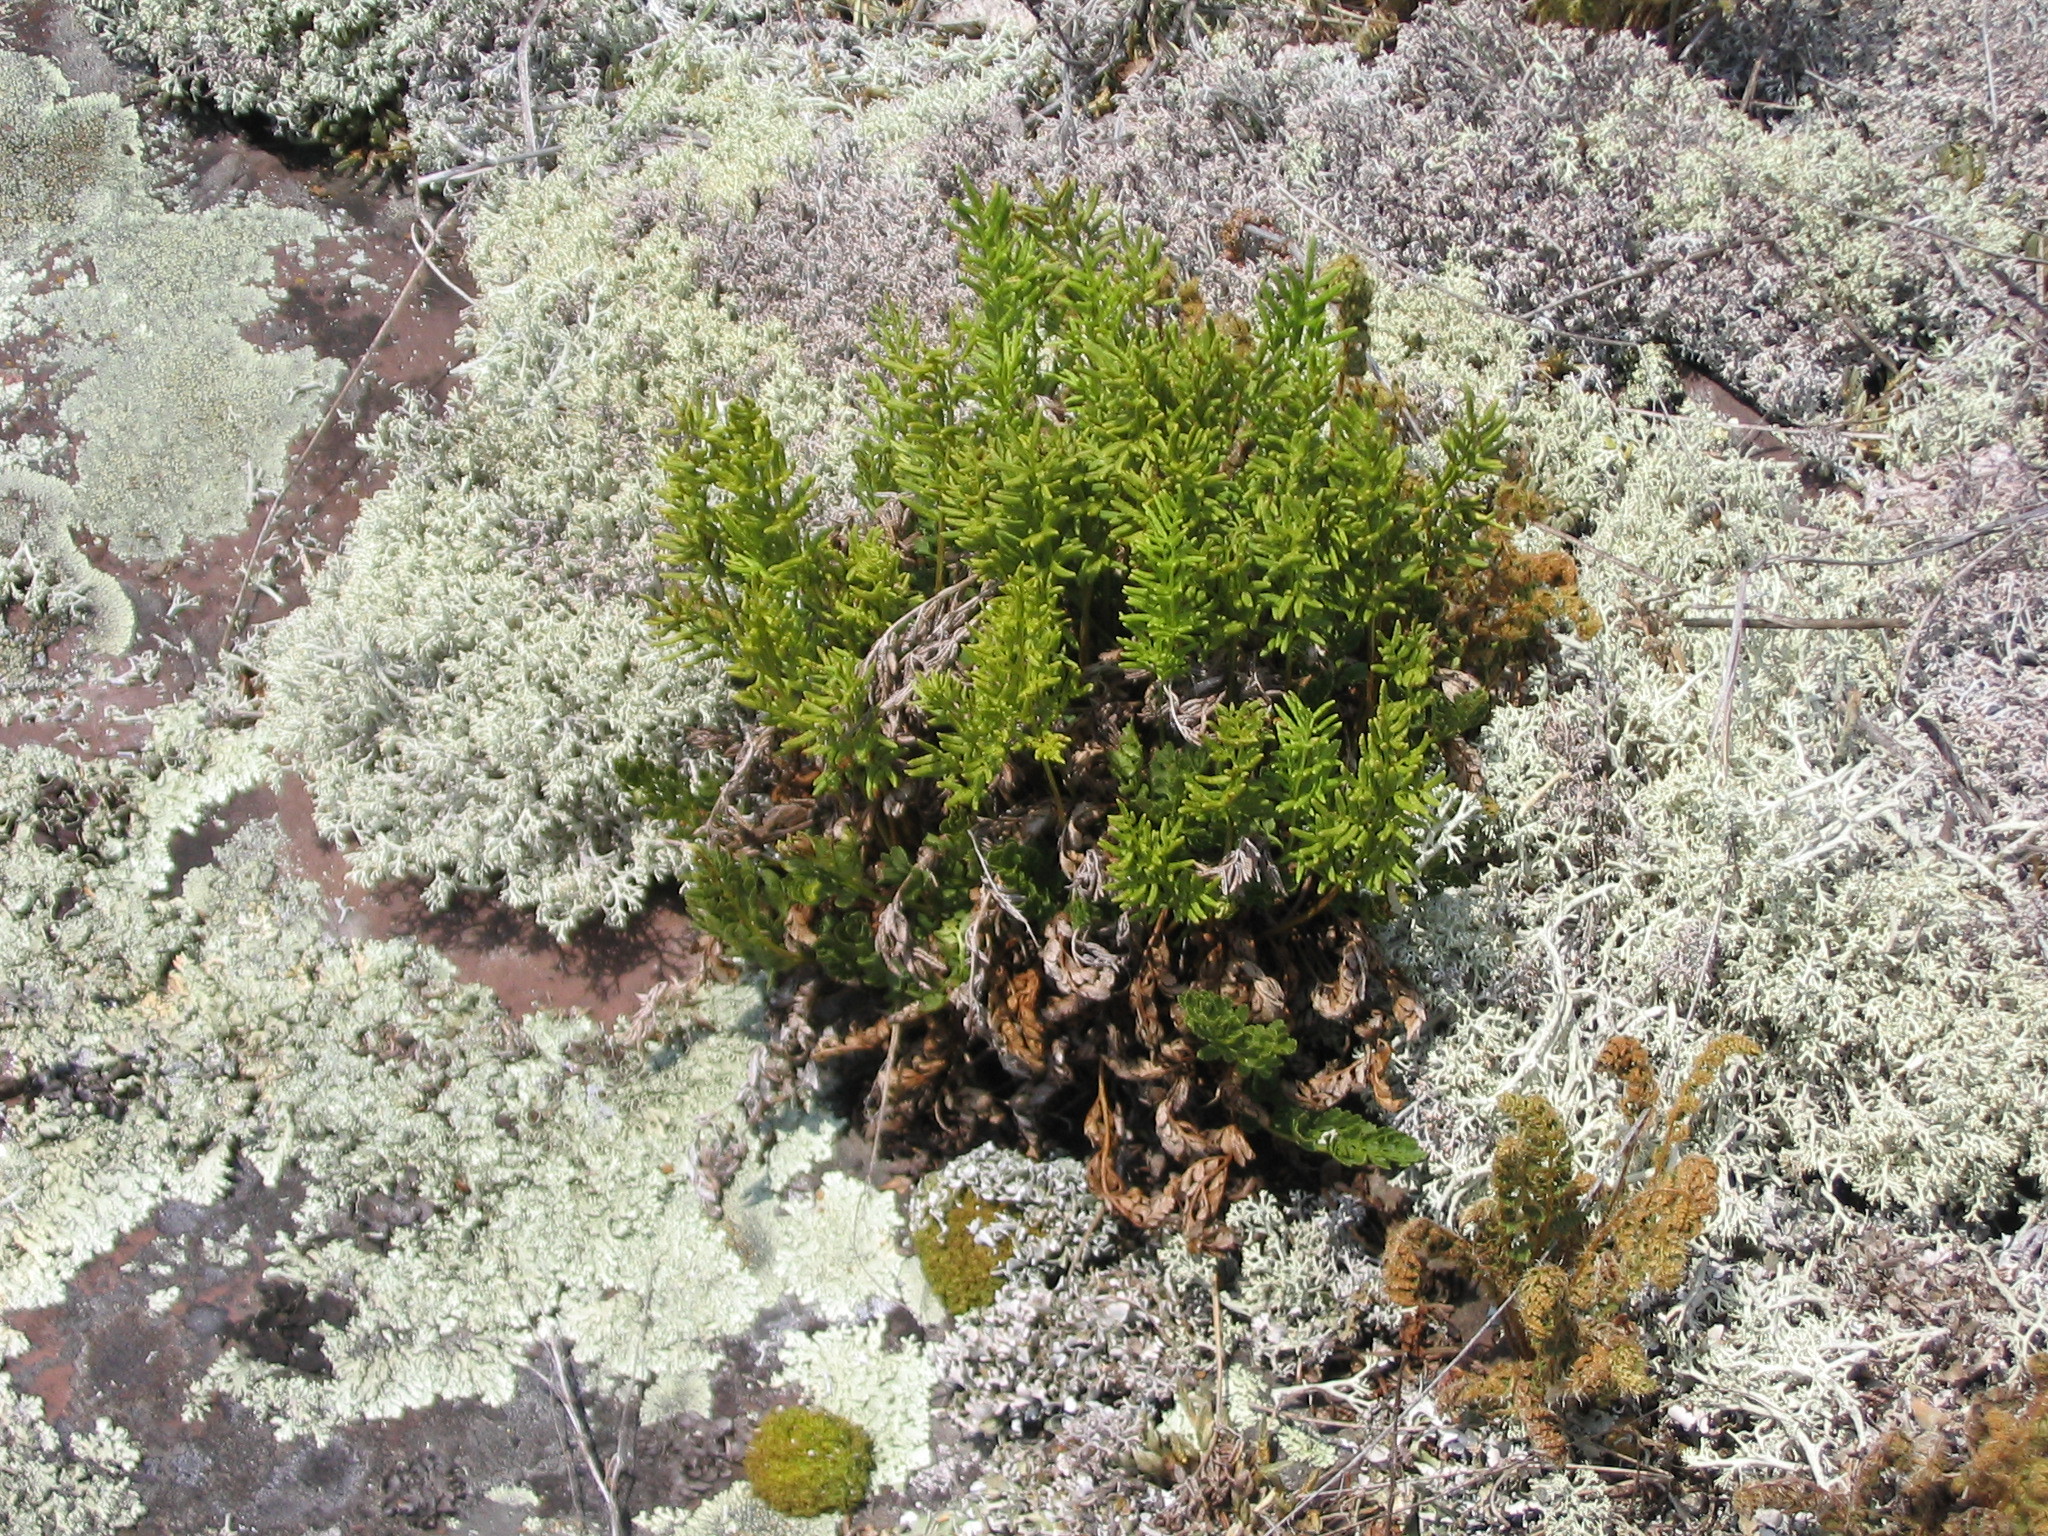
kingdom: Plantae
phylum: Tracheophyta
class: Polypodiopsida
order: Polypodiales
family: Pteridaceae
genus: Cryptogramma
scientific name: Cryptogramma acrostichoides
